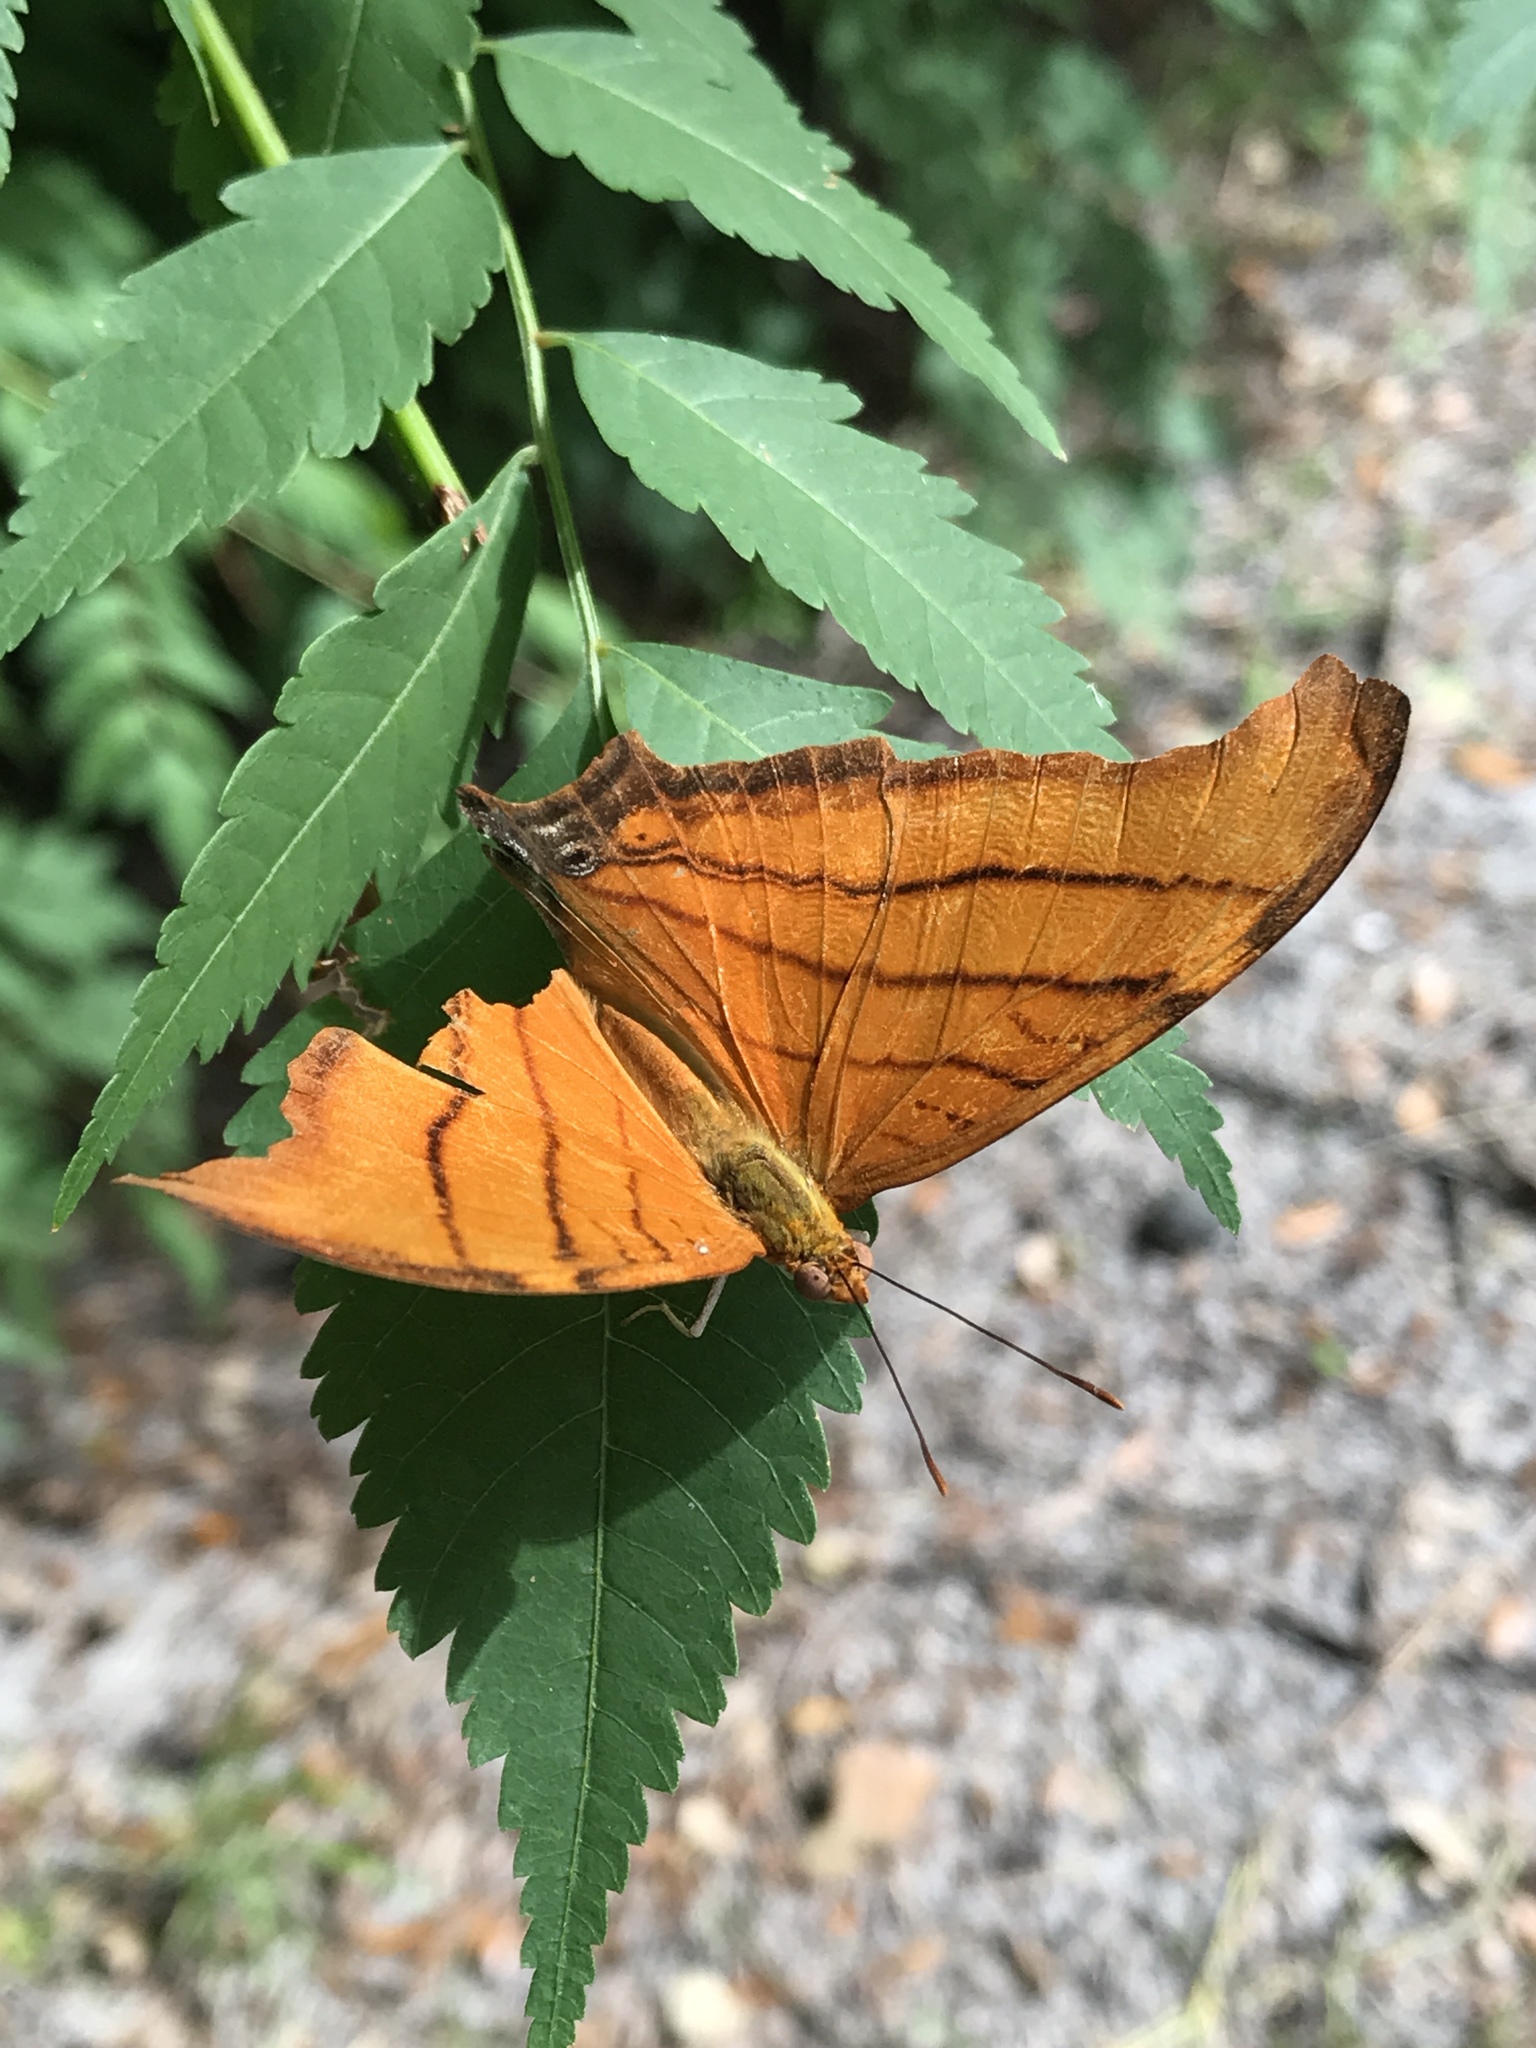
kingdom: Animalia
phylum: Arthropoda
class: Insecta
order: Lepidoptera
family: Nymphalidae
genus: Marpesia
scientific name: Marpesia petreus
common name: Red dagger wing
